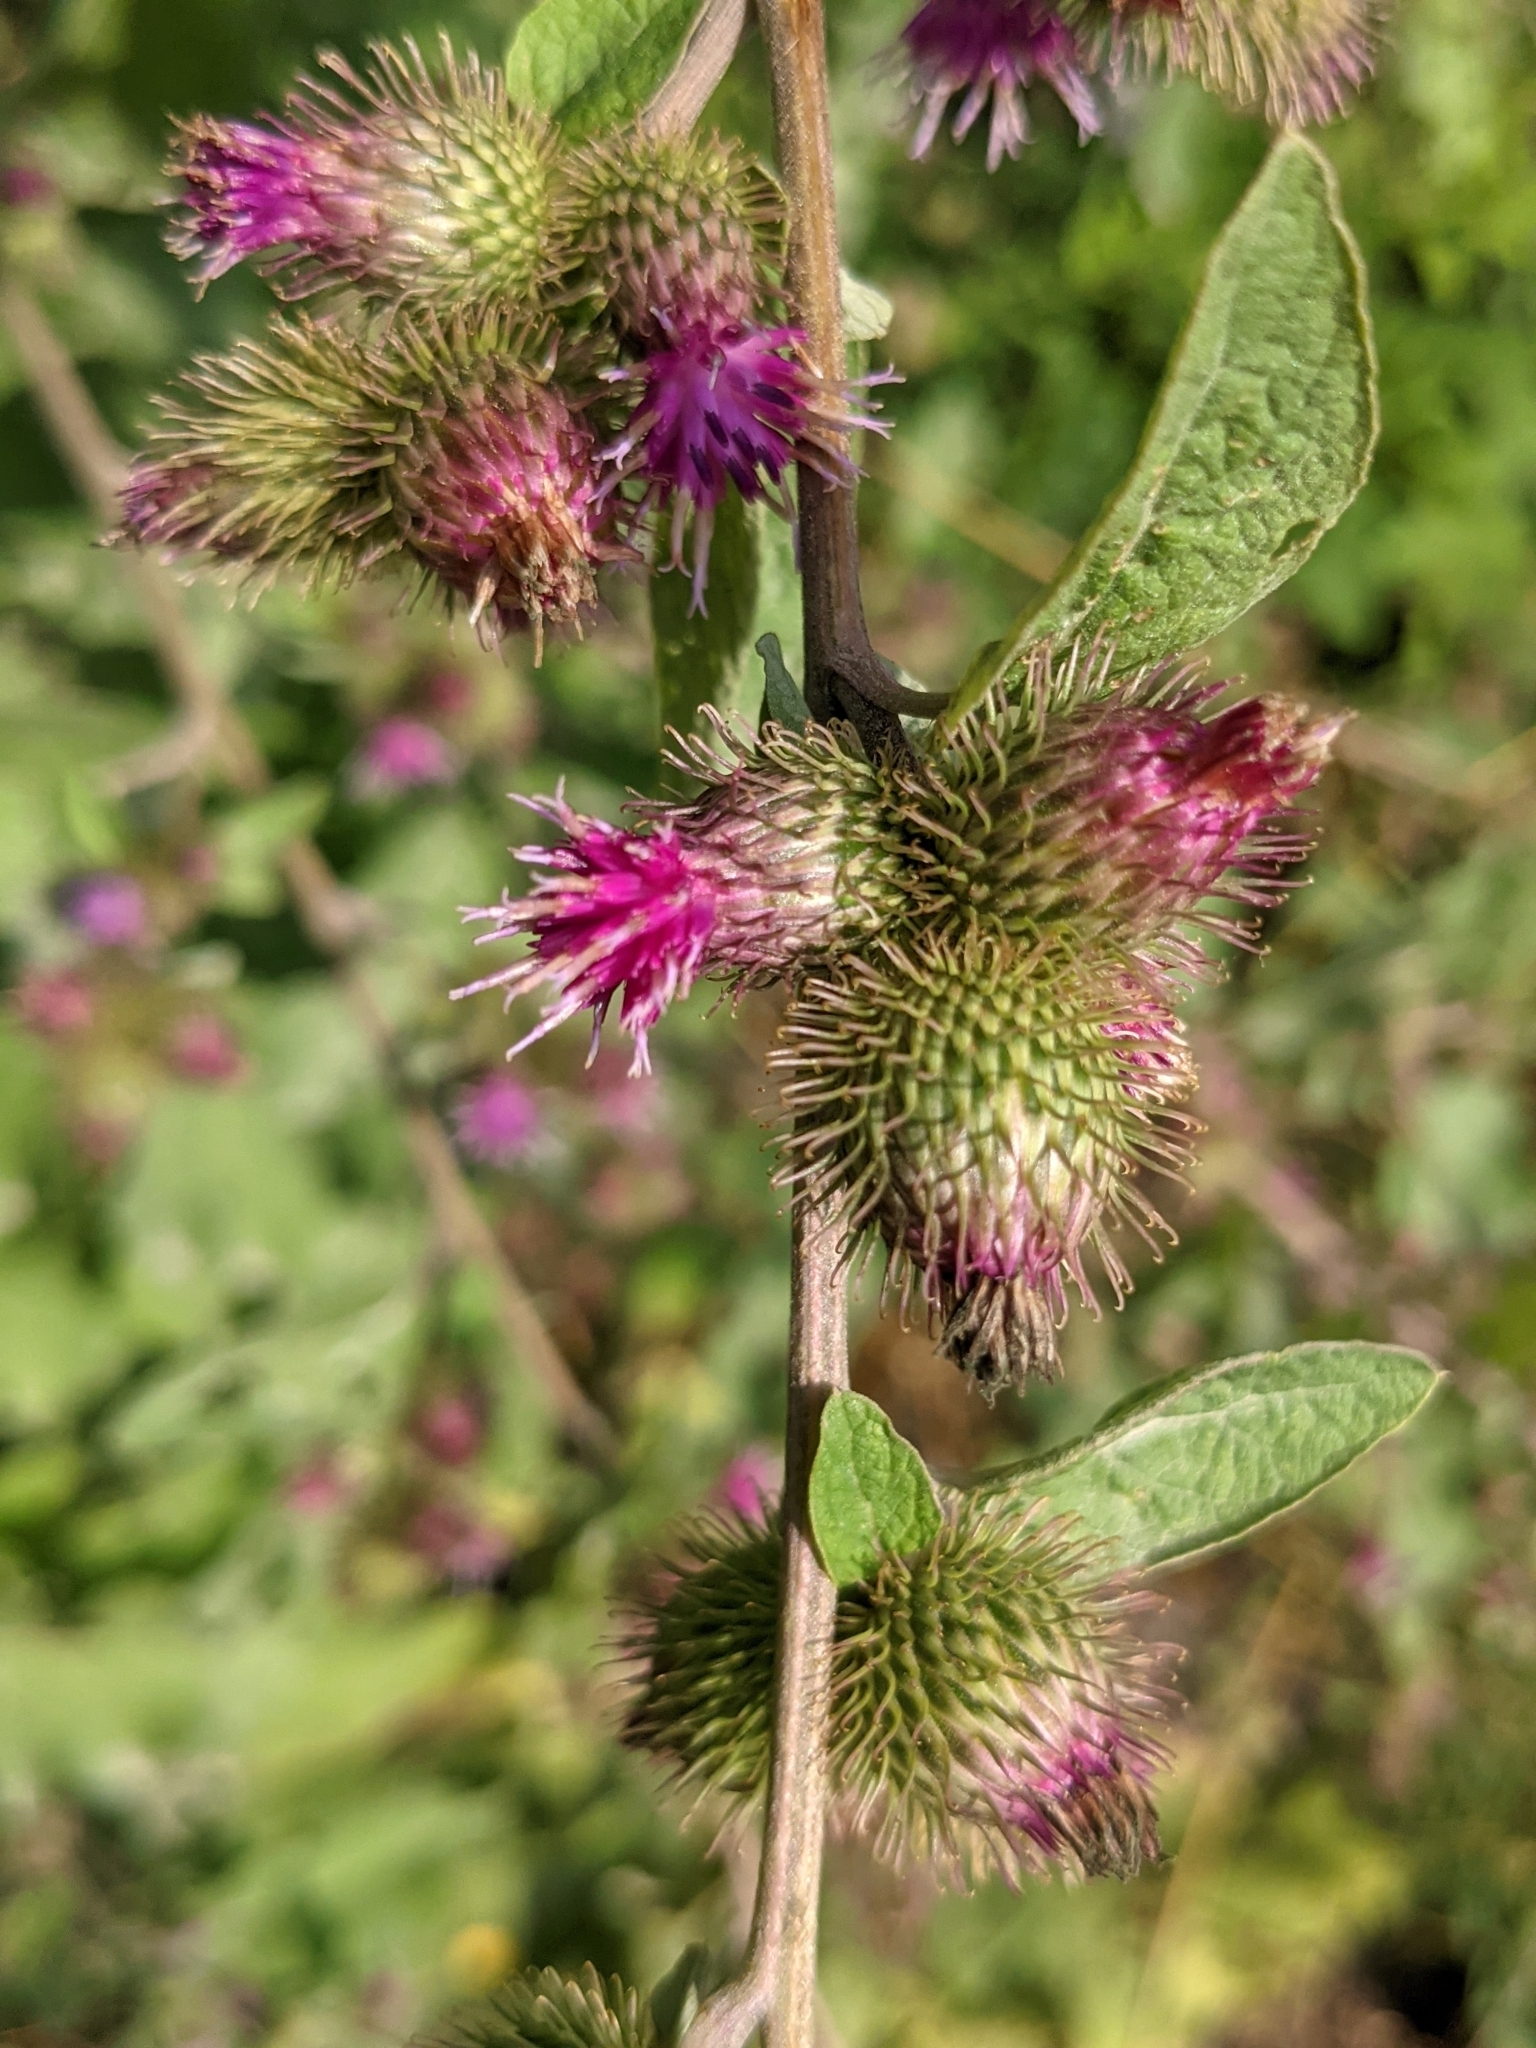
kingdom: Plantae
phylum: Tracheophyta
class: Magnoliopsida
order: Asterales
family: Asteraceae
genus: Arctium
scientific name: Arctium minus
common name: Lesser burdock
